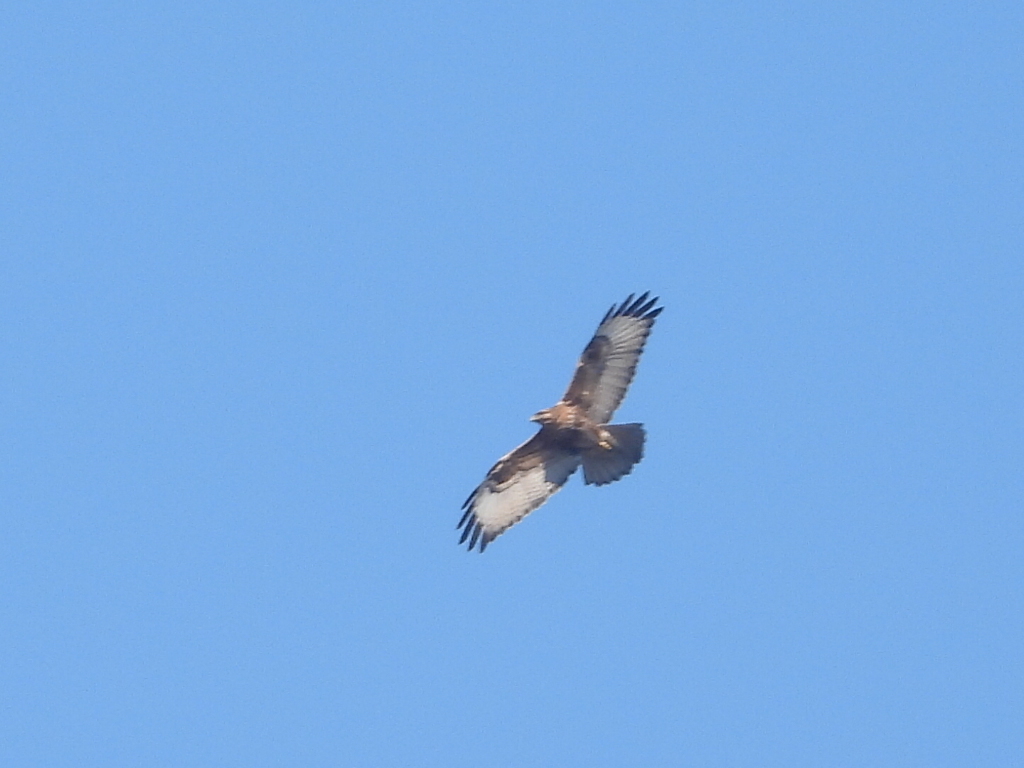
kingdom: Animalia
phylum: Chordata
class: Aves
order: Accipitriformes
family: Accipitridae
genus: Buteo
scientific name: Buteo japonicus
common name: Eastern buzzard
